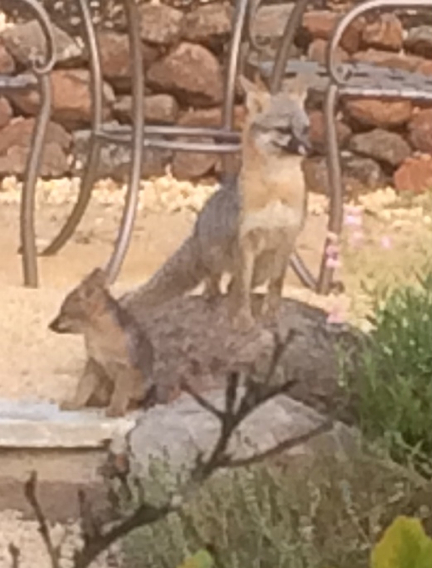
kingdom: Animalia
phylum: Chordata
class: Mammalia
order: Carnivora
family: Canidae
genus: Urocyon
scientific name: Urocyon cinereoargenteus
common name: Gray fox
